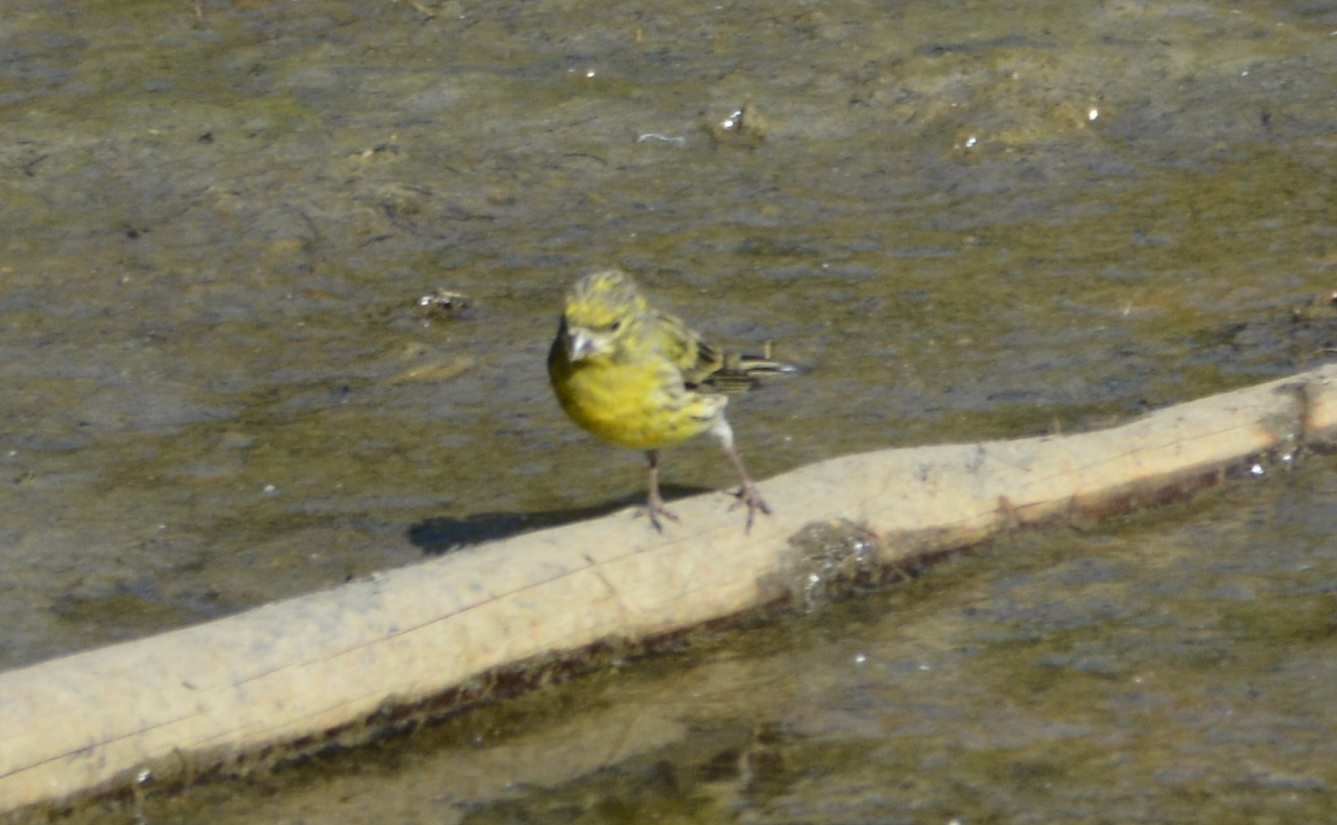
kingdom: Animalia
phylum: Chordata
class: Aves
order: Passeriformes
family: Fringillidae
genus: Serinus
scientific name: Serinus serinus
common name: European serin
